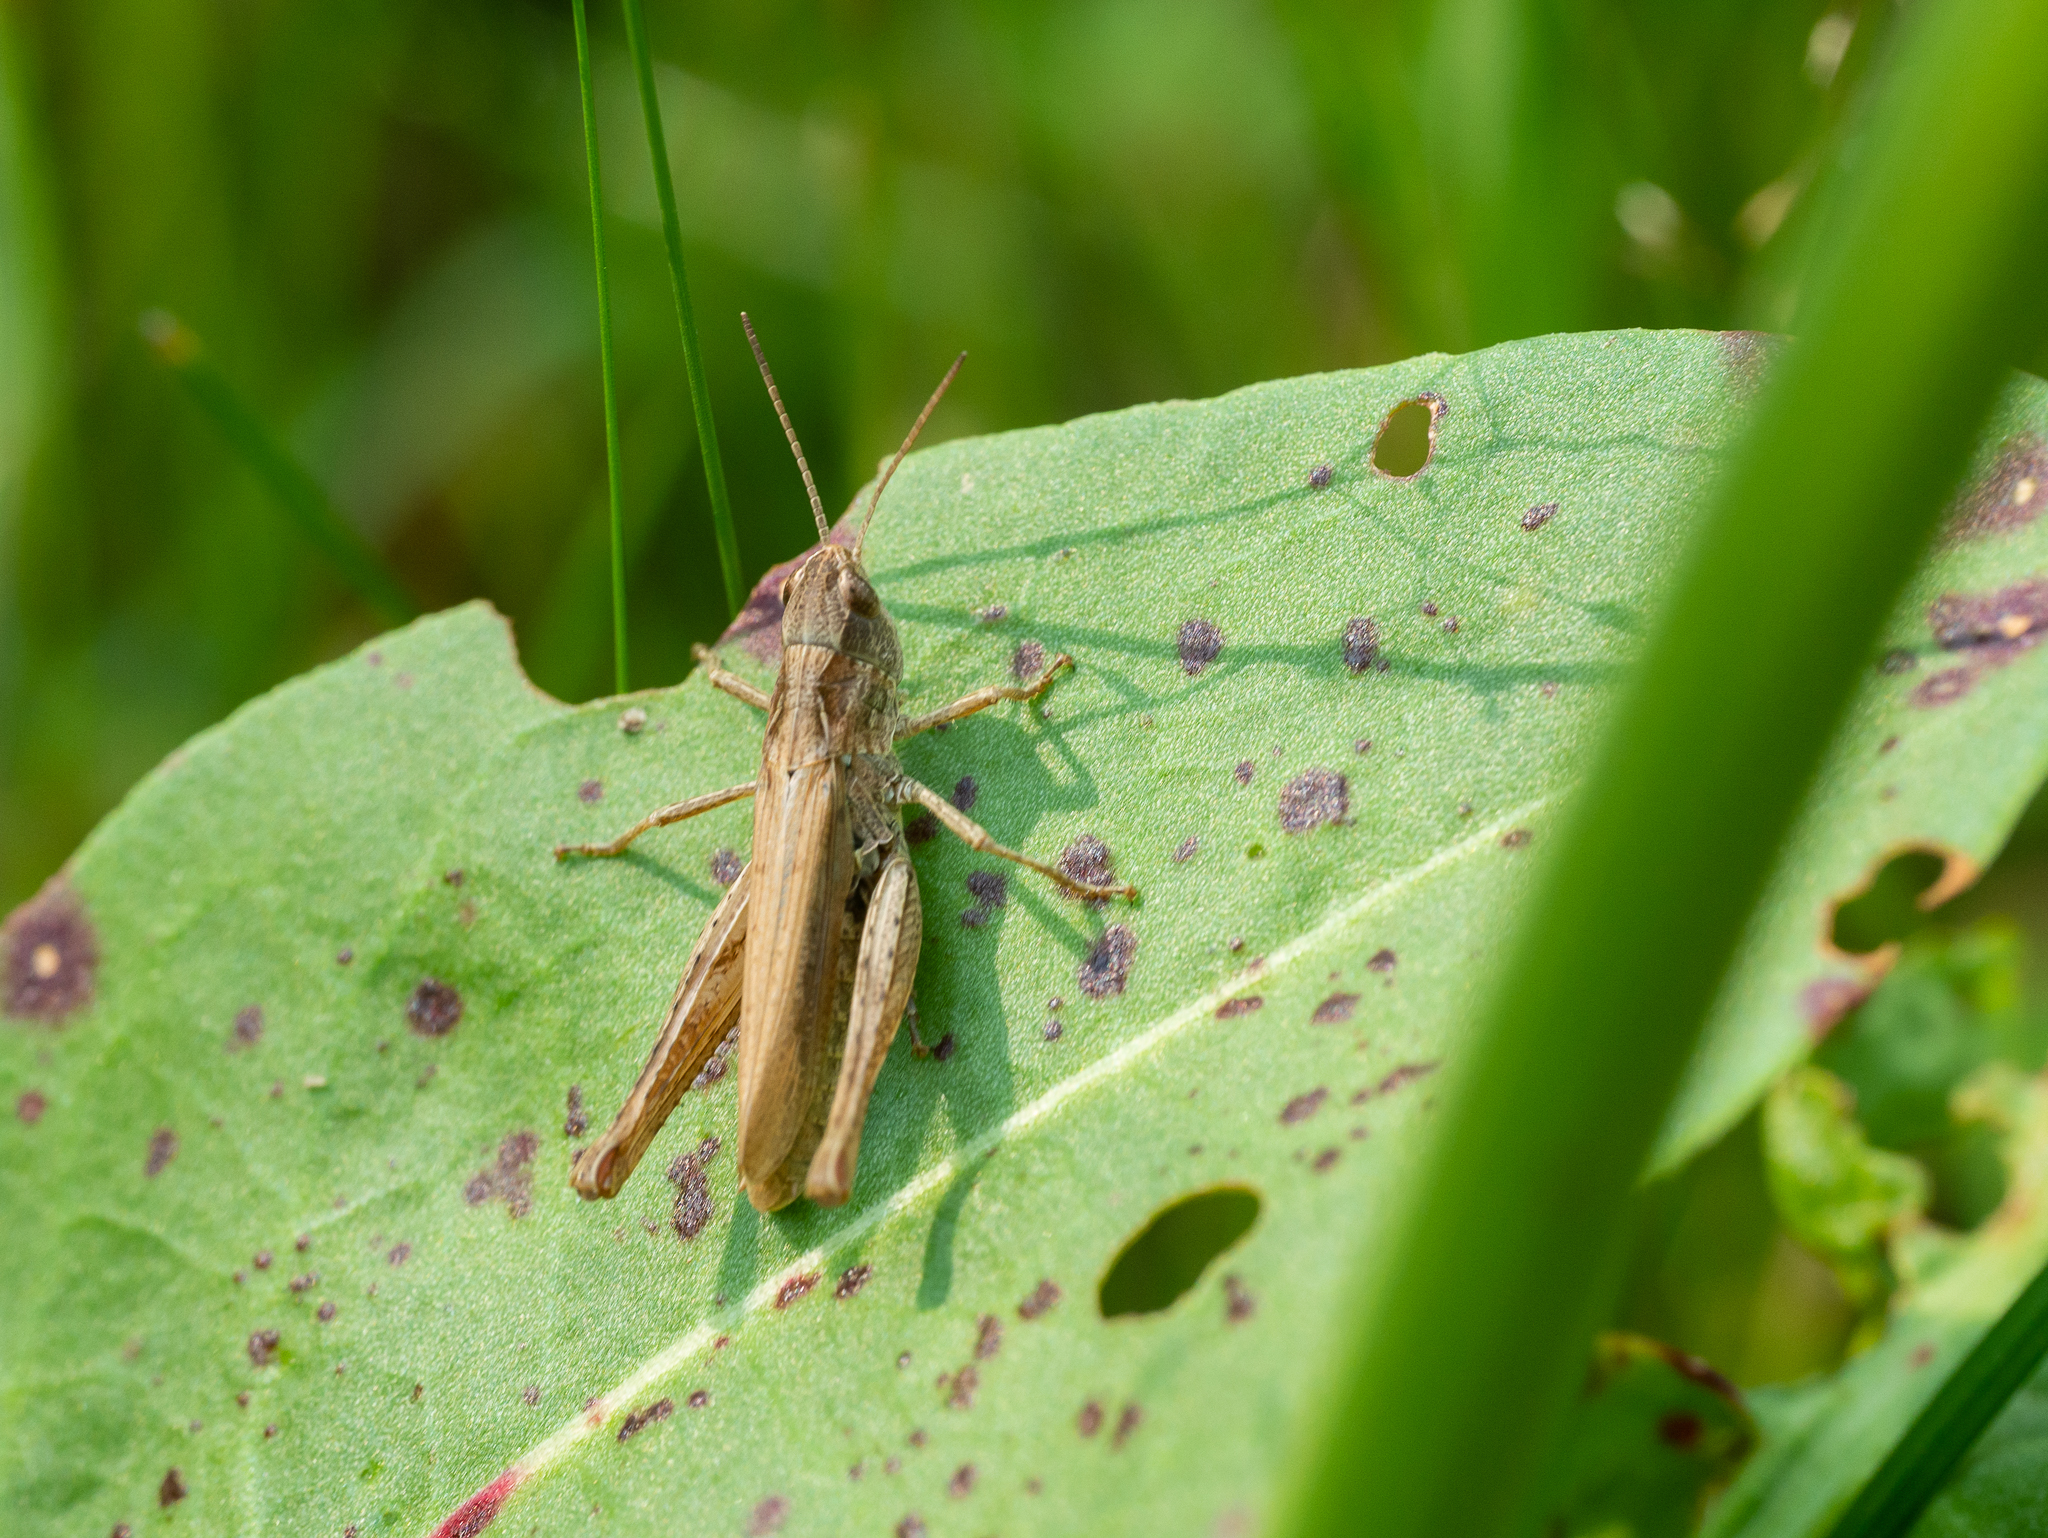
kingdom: Animalia
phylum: Arthropoda
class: Insecta
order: Orthoptera
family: Acrididae
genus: Chorthippus
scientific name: Chorthippus apricarius
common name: Upland field grasshopper
